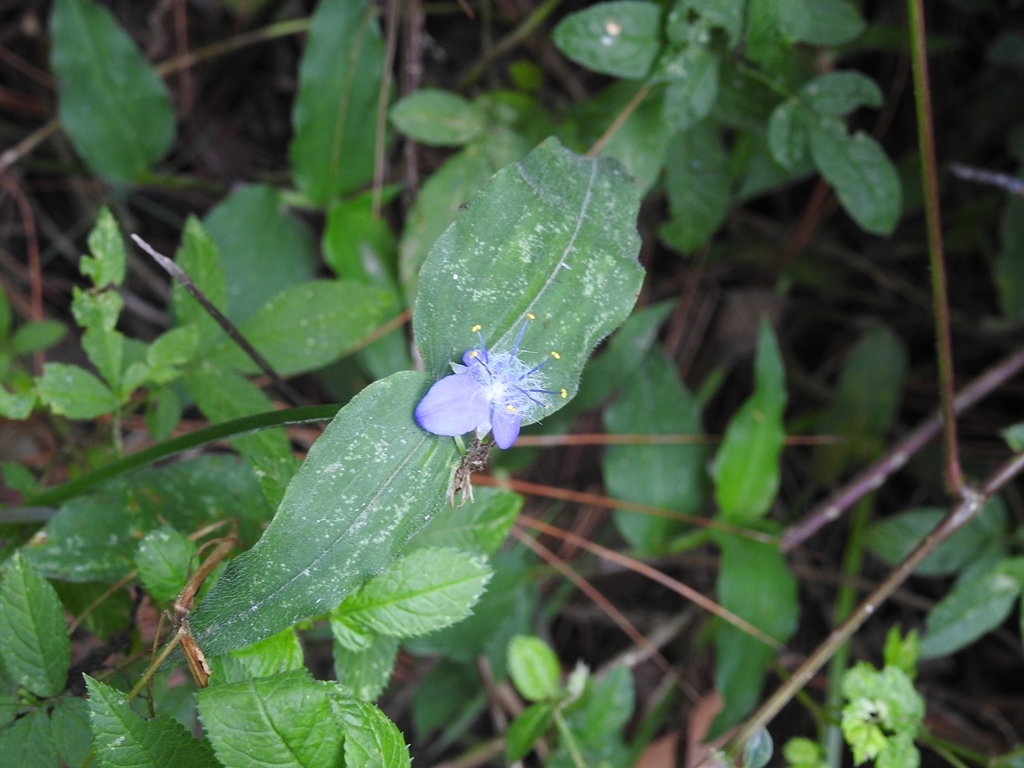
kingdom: Plantae
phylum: Tracheophyta
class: Liliopsida
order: Commelinales
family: Commelinaceae
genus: Elasis
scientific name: Elasis guatemalensis
